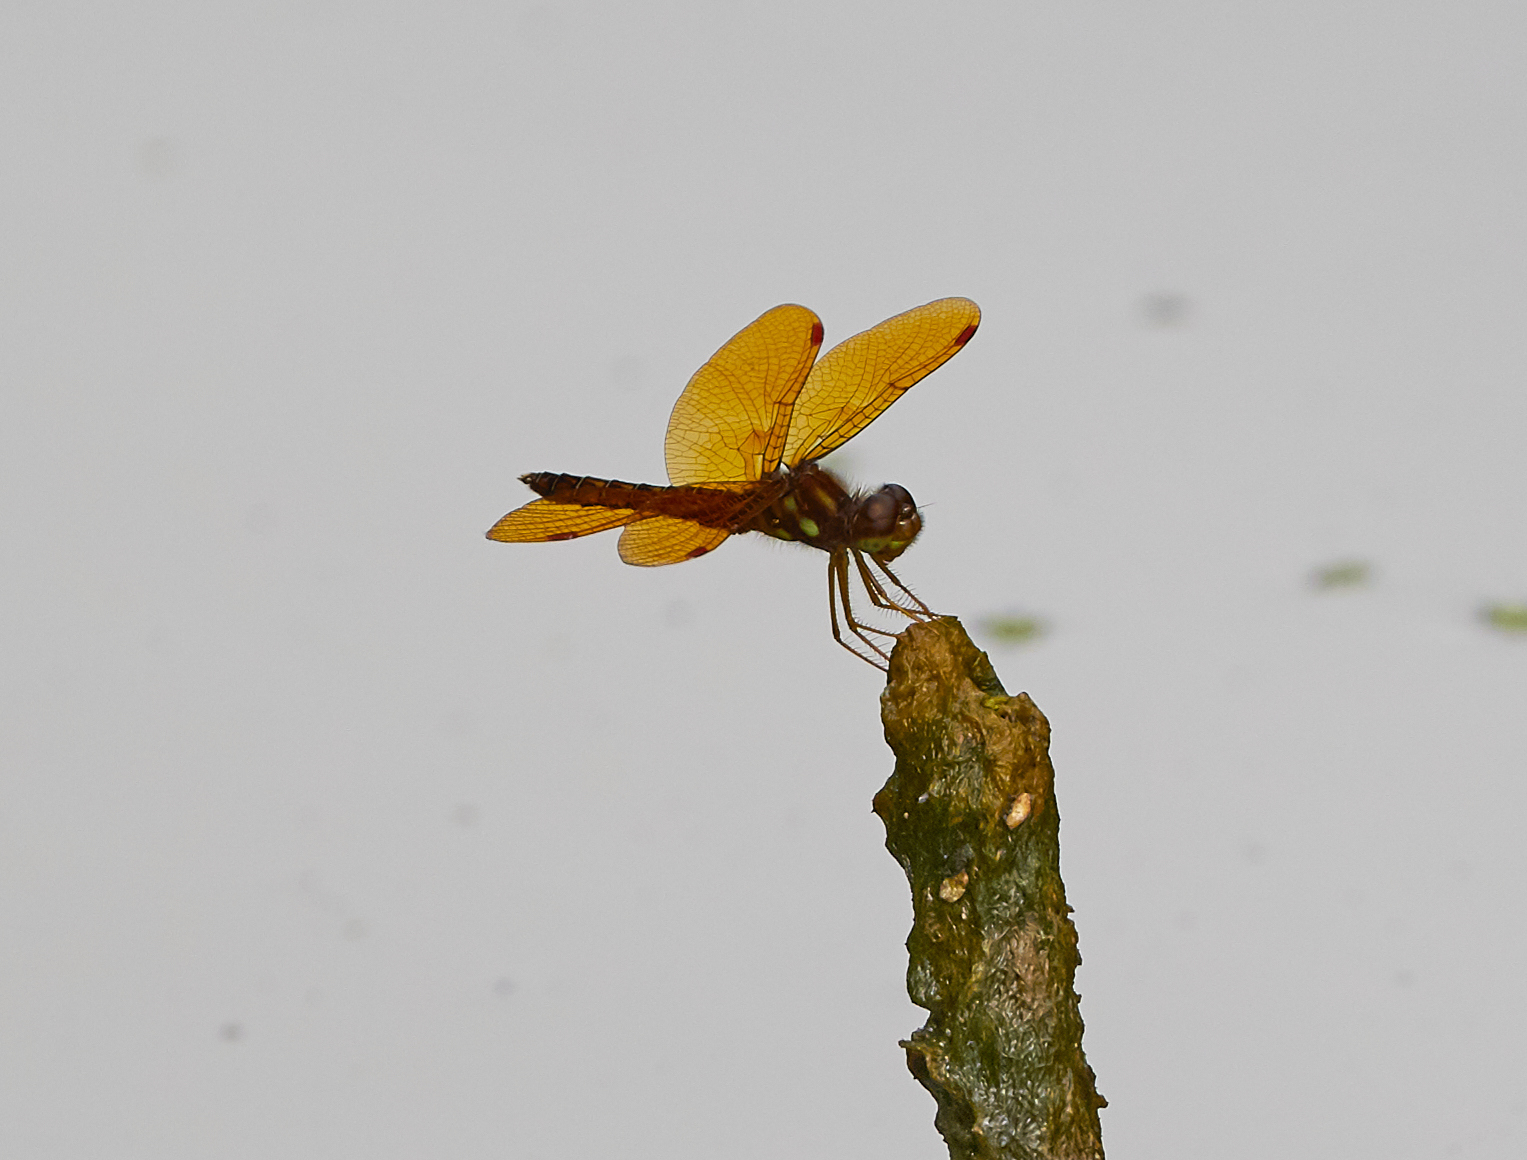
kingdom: Animalia
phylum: Arthropoda
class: Insecta
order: Odonata
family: Libellulidae
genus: Perithemis
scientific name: Perithemis tenera
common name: Eastern amberwing
